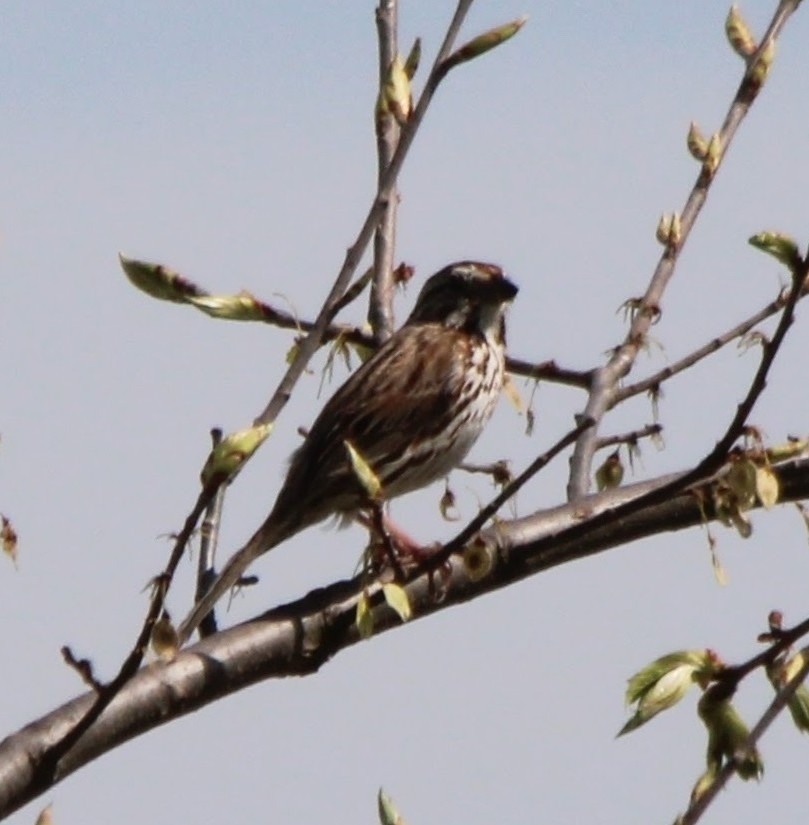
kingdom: Animalia
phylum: Chordata
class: Aves
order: Passeriformes
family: Passerellidae
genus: Melospiza
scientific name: Melospiza melodia
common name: Song sparrow
